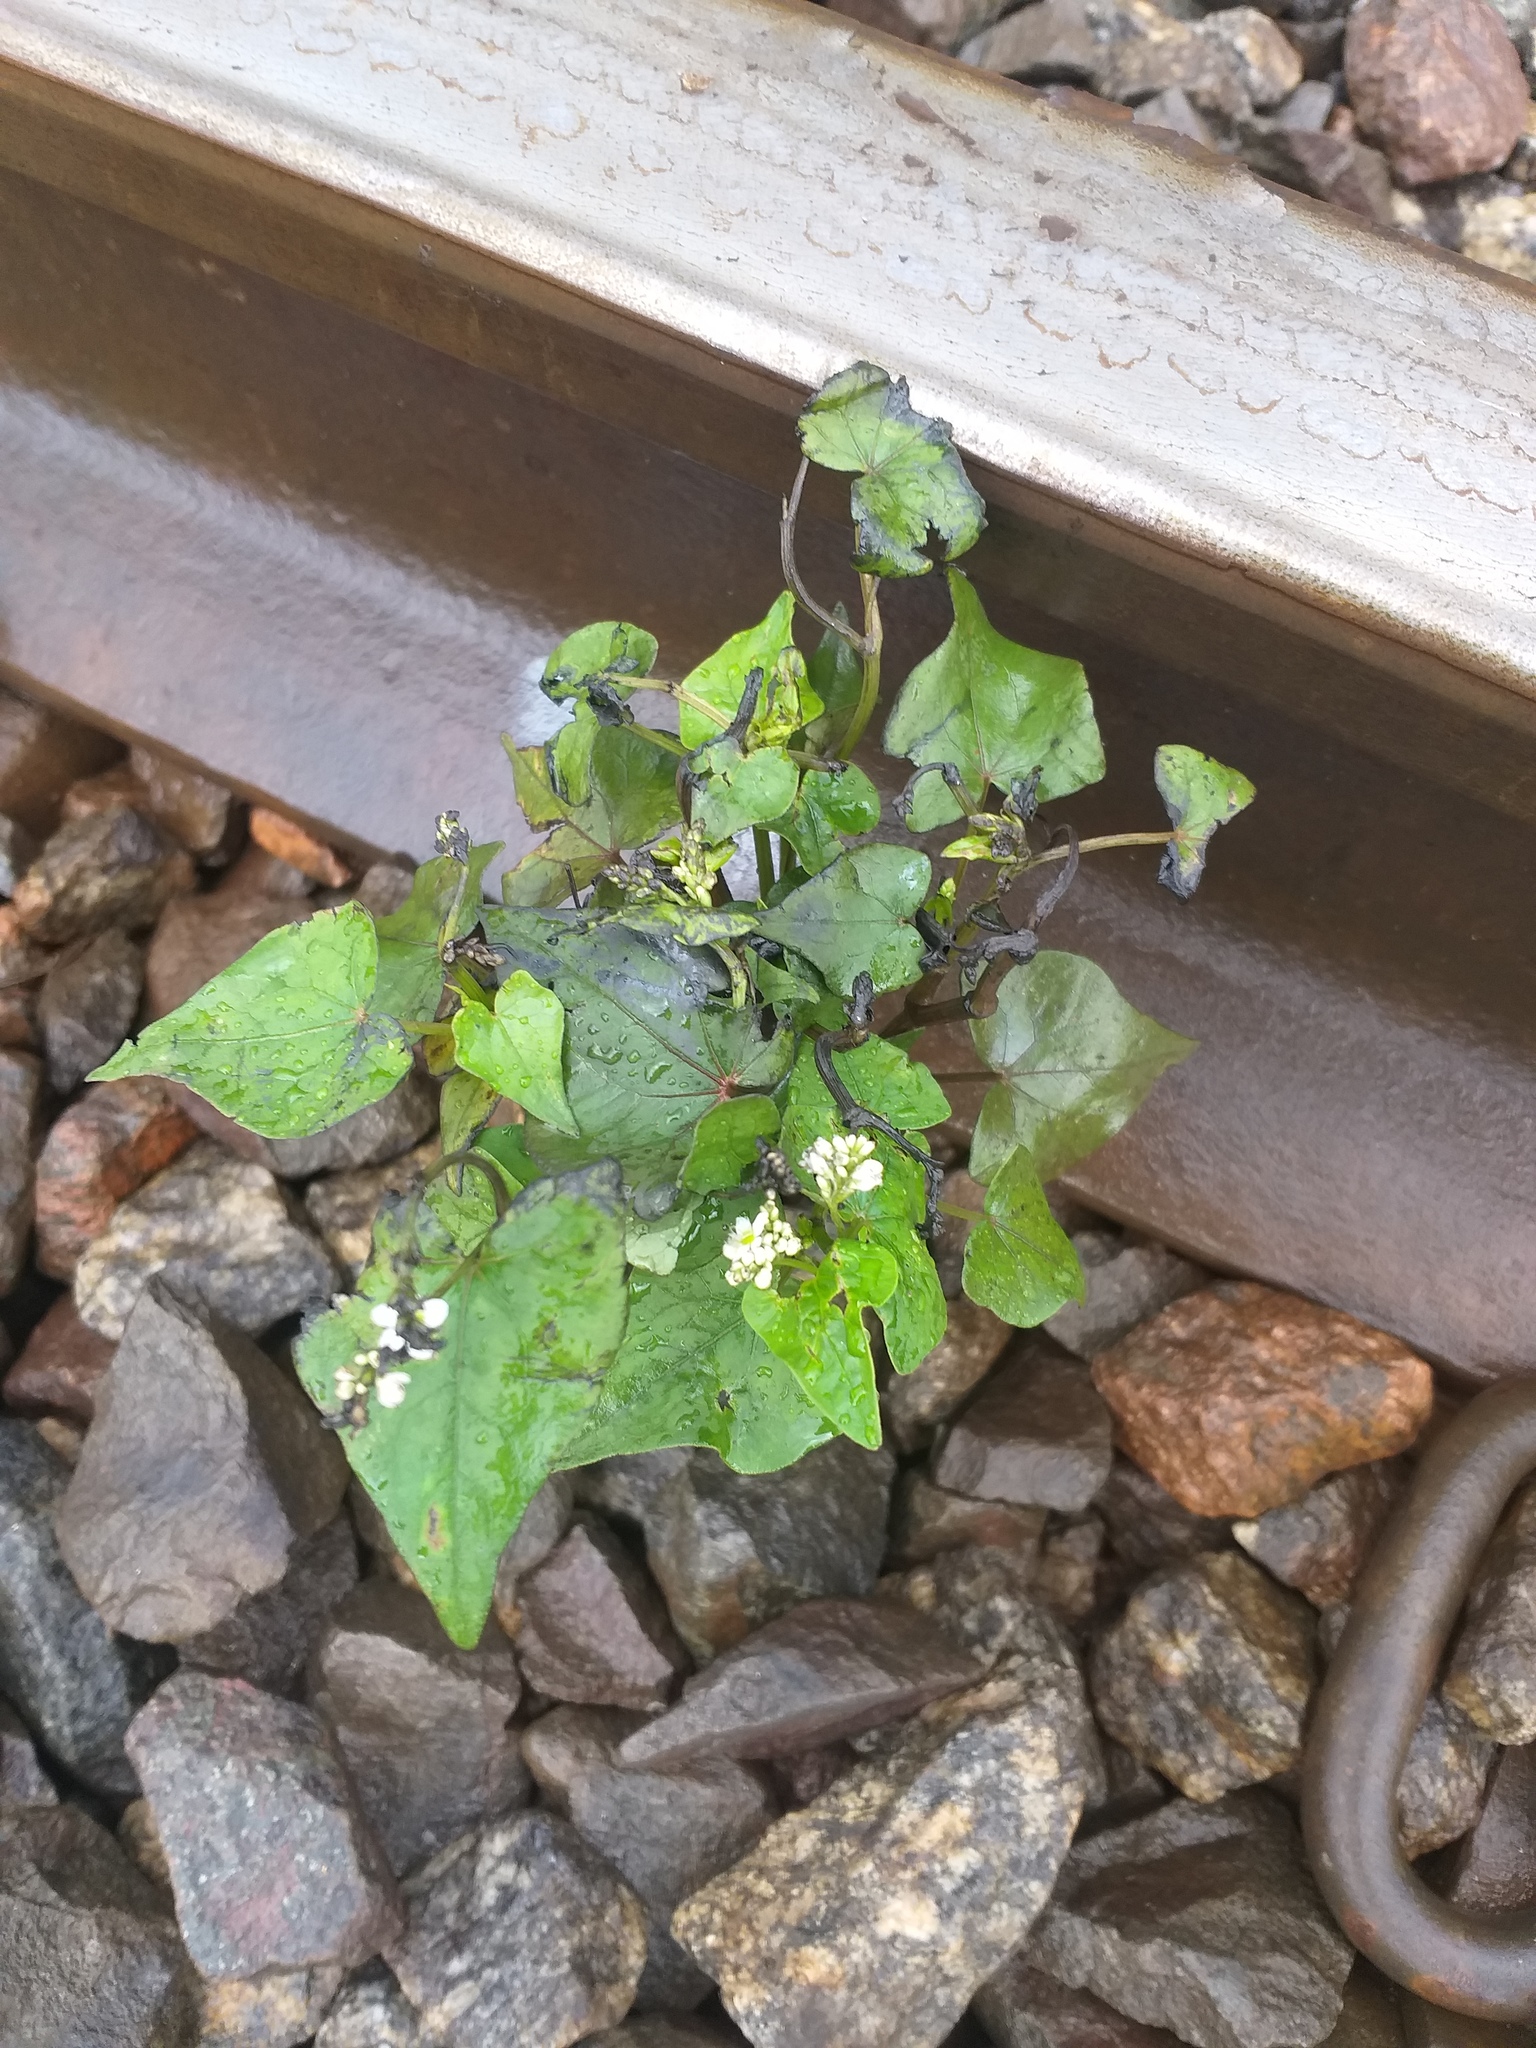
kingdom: Plantae
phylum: Tracheophyta
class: Magnoliopsida
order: Caryophyllales
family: Polygonaceae
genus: Fagopyrum
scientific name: Fagopyrum esculentum
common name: Buckwheat
